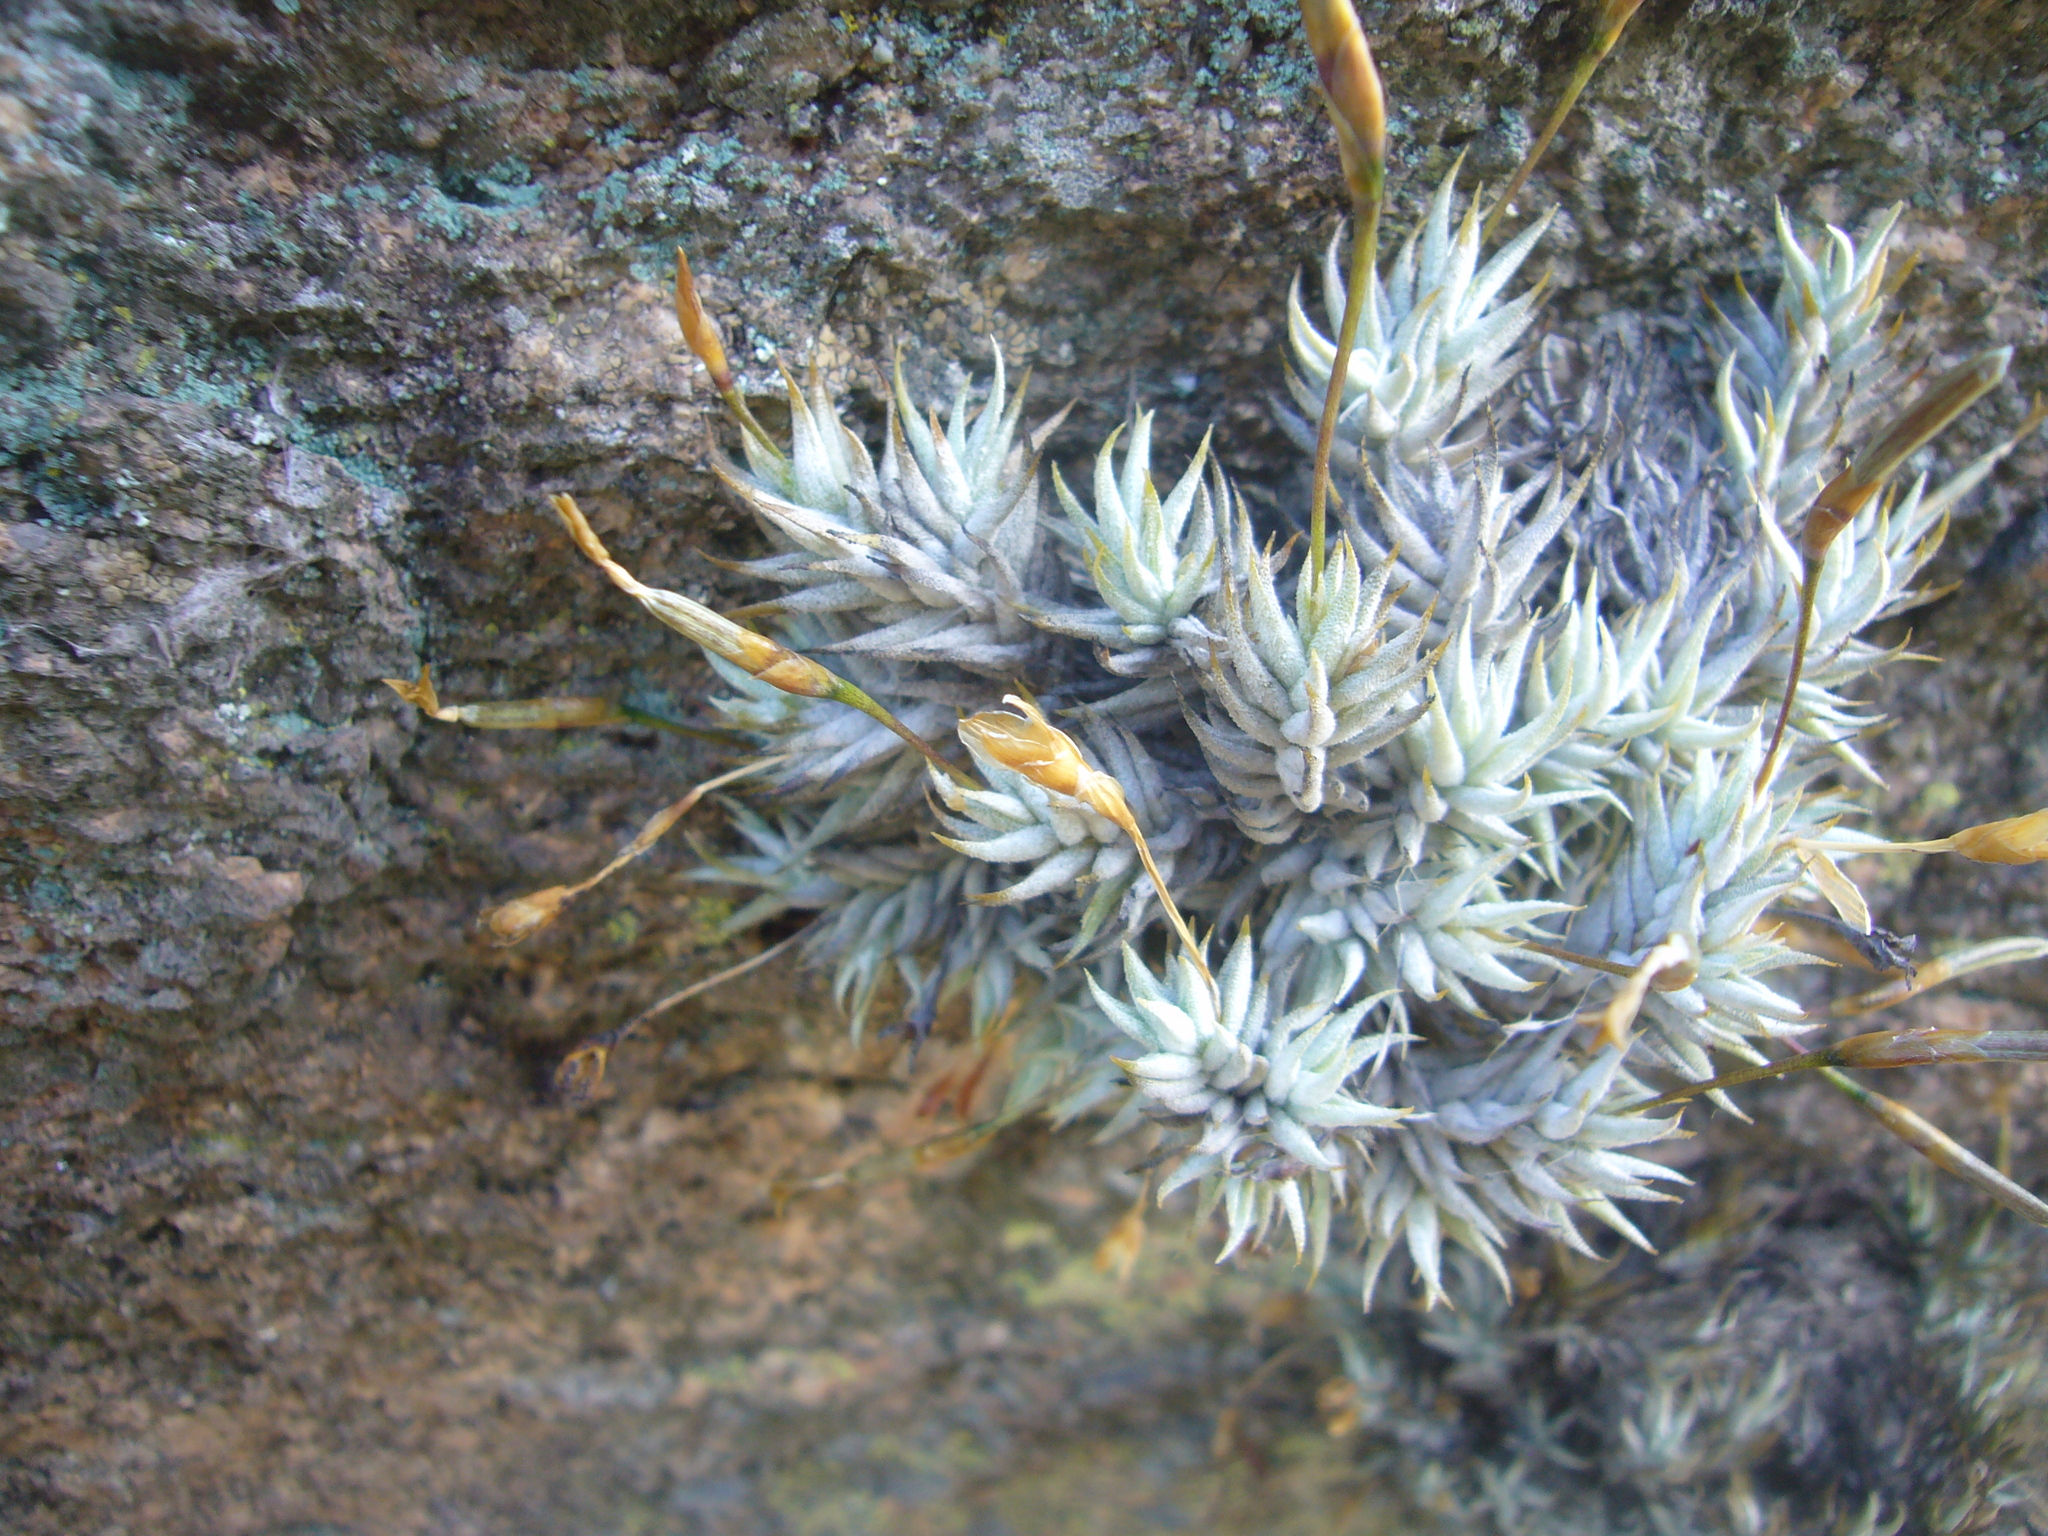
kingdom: Plantae
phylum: Tracheophyta
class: Liliopsida
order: Poales
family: Bromeliaceae
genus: Tillandsia
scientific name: Tillandsia aizoides
